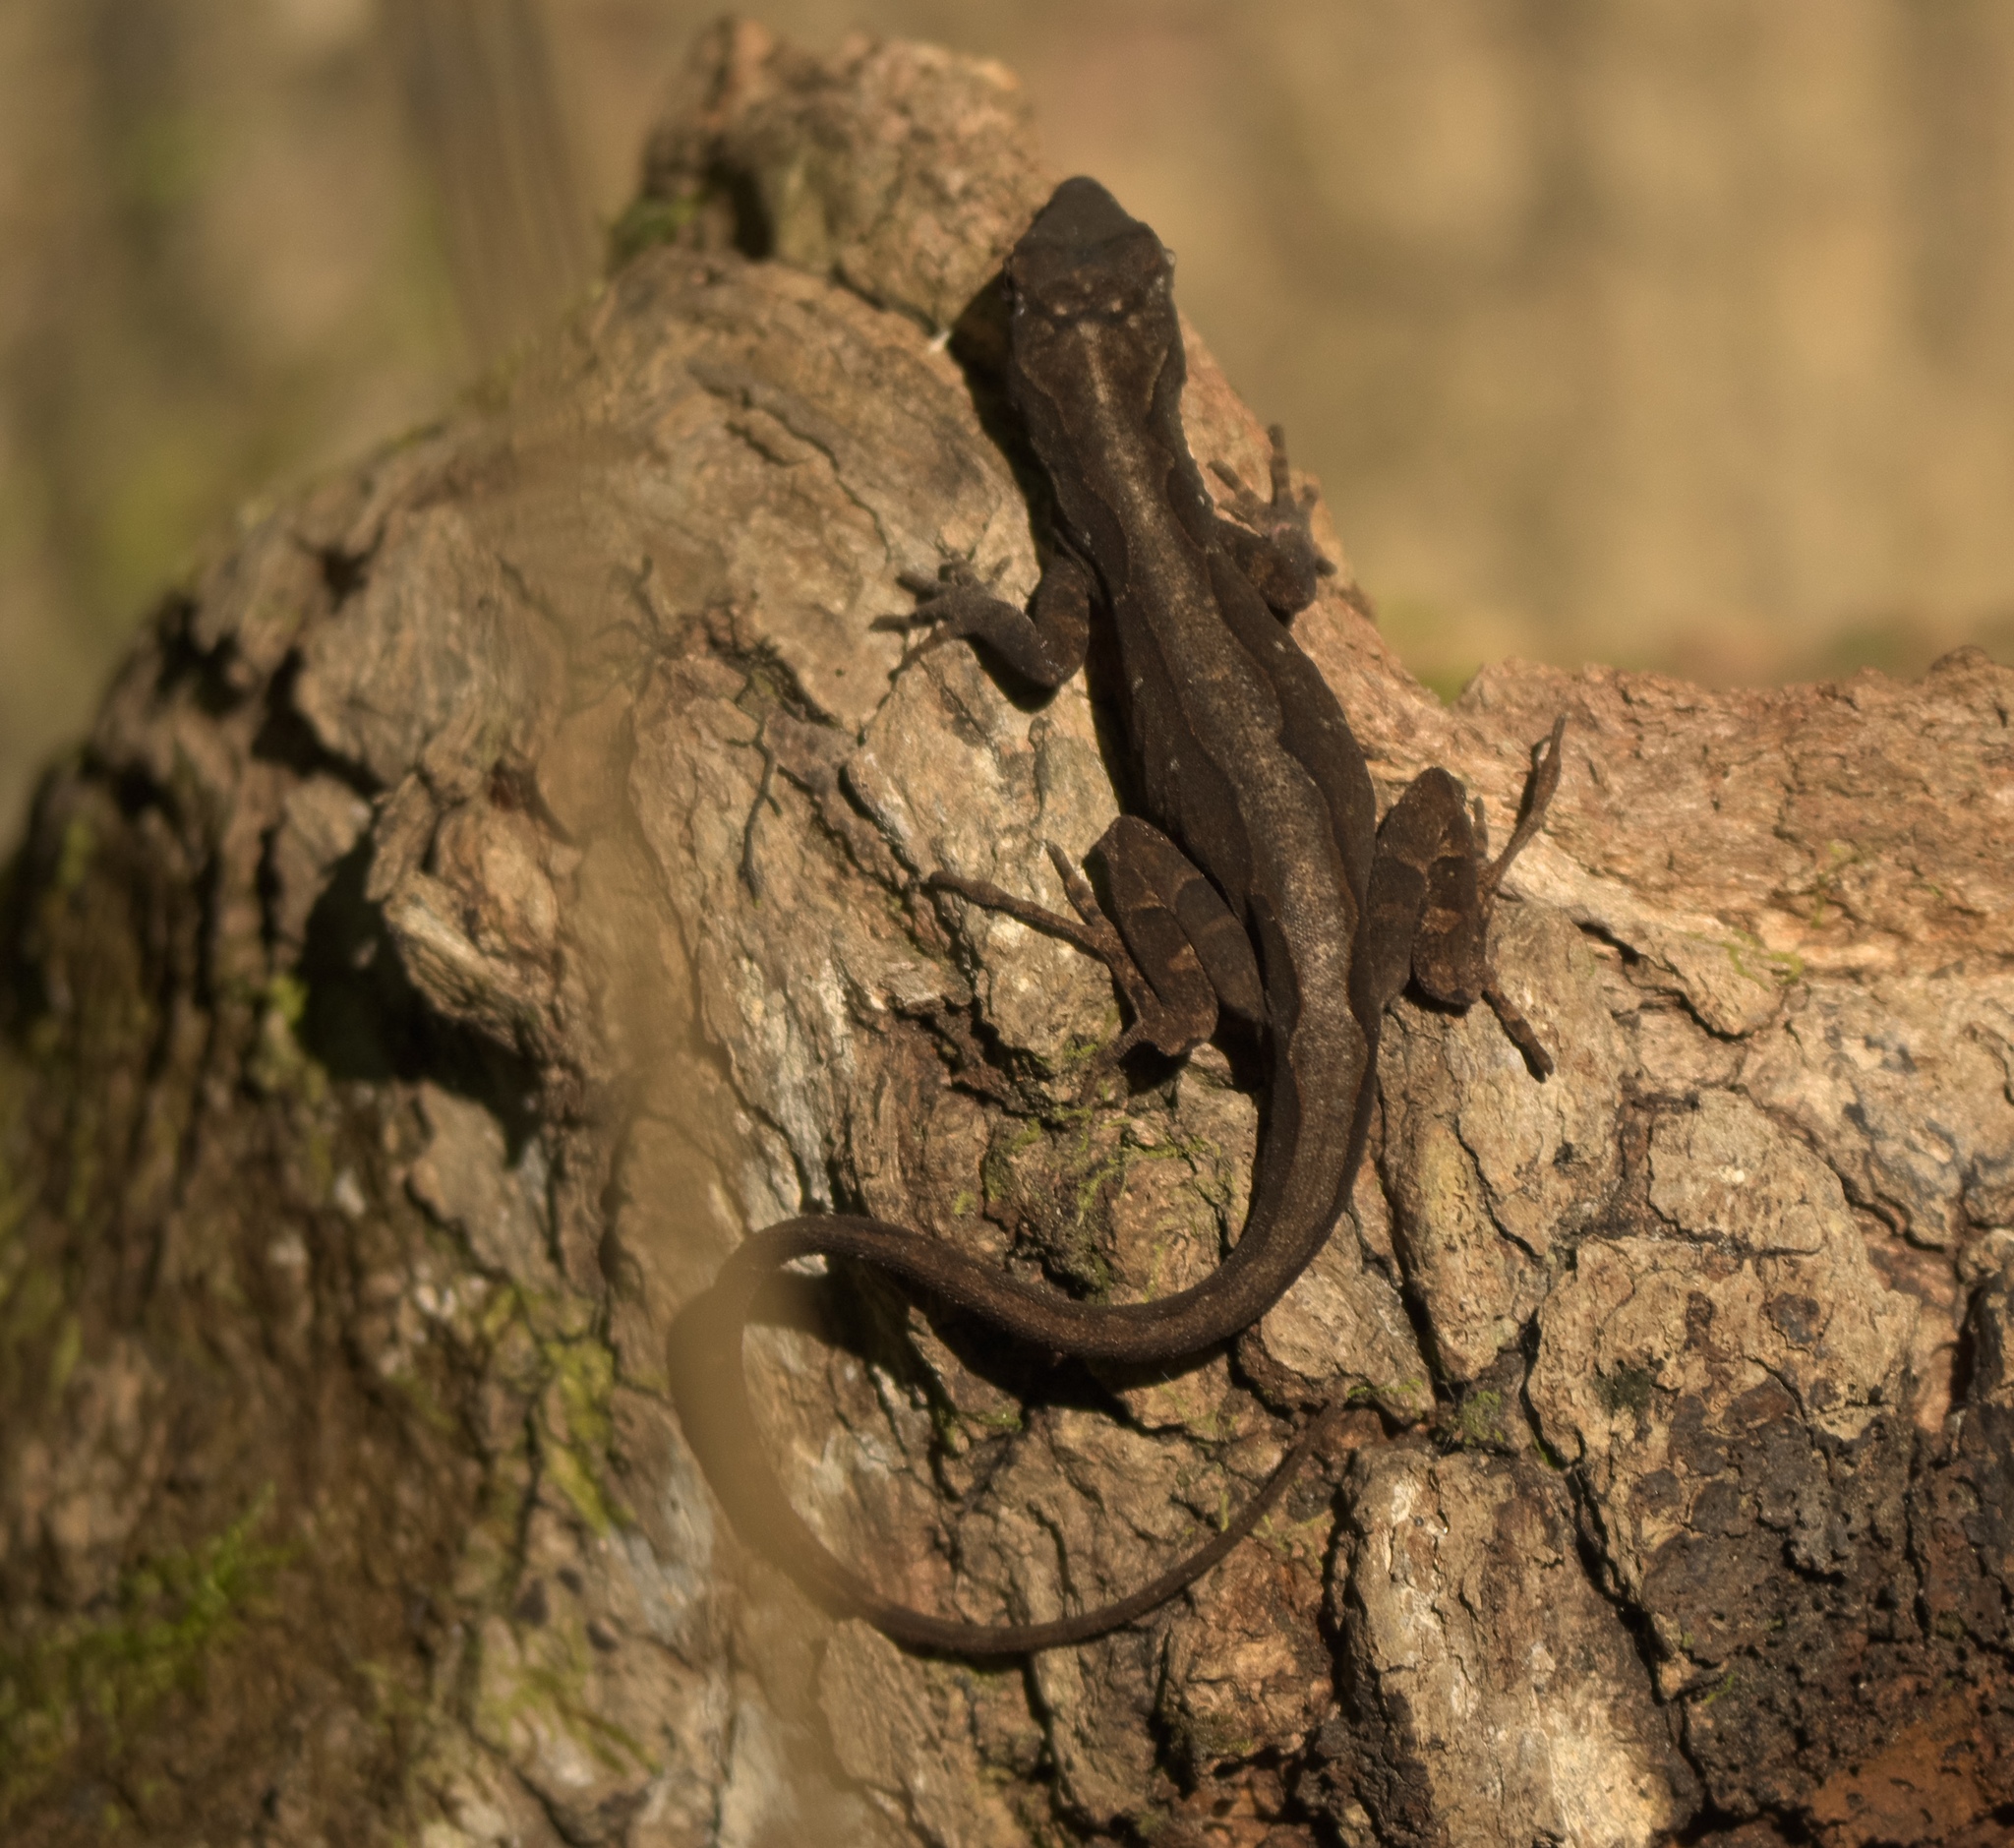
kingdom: Animalia
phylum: Chordata
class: Squamata
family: Dactyloidae
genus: Anolis
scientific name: Anolis sagrei
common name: Brown anole
